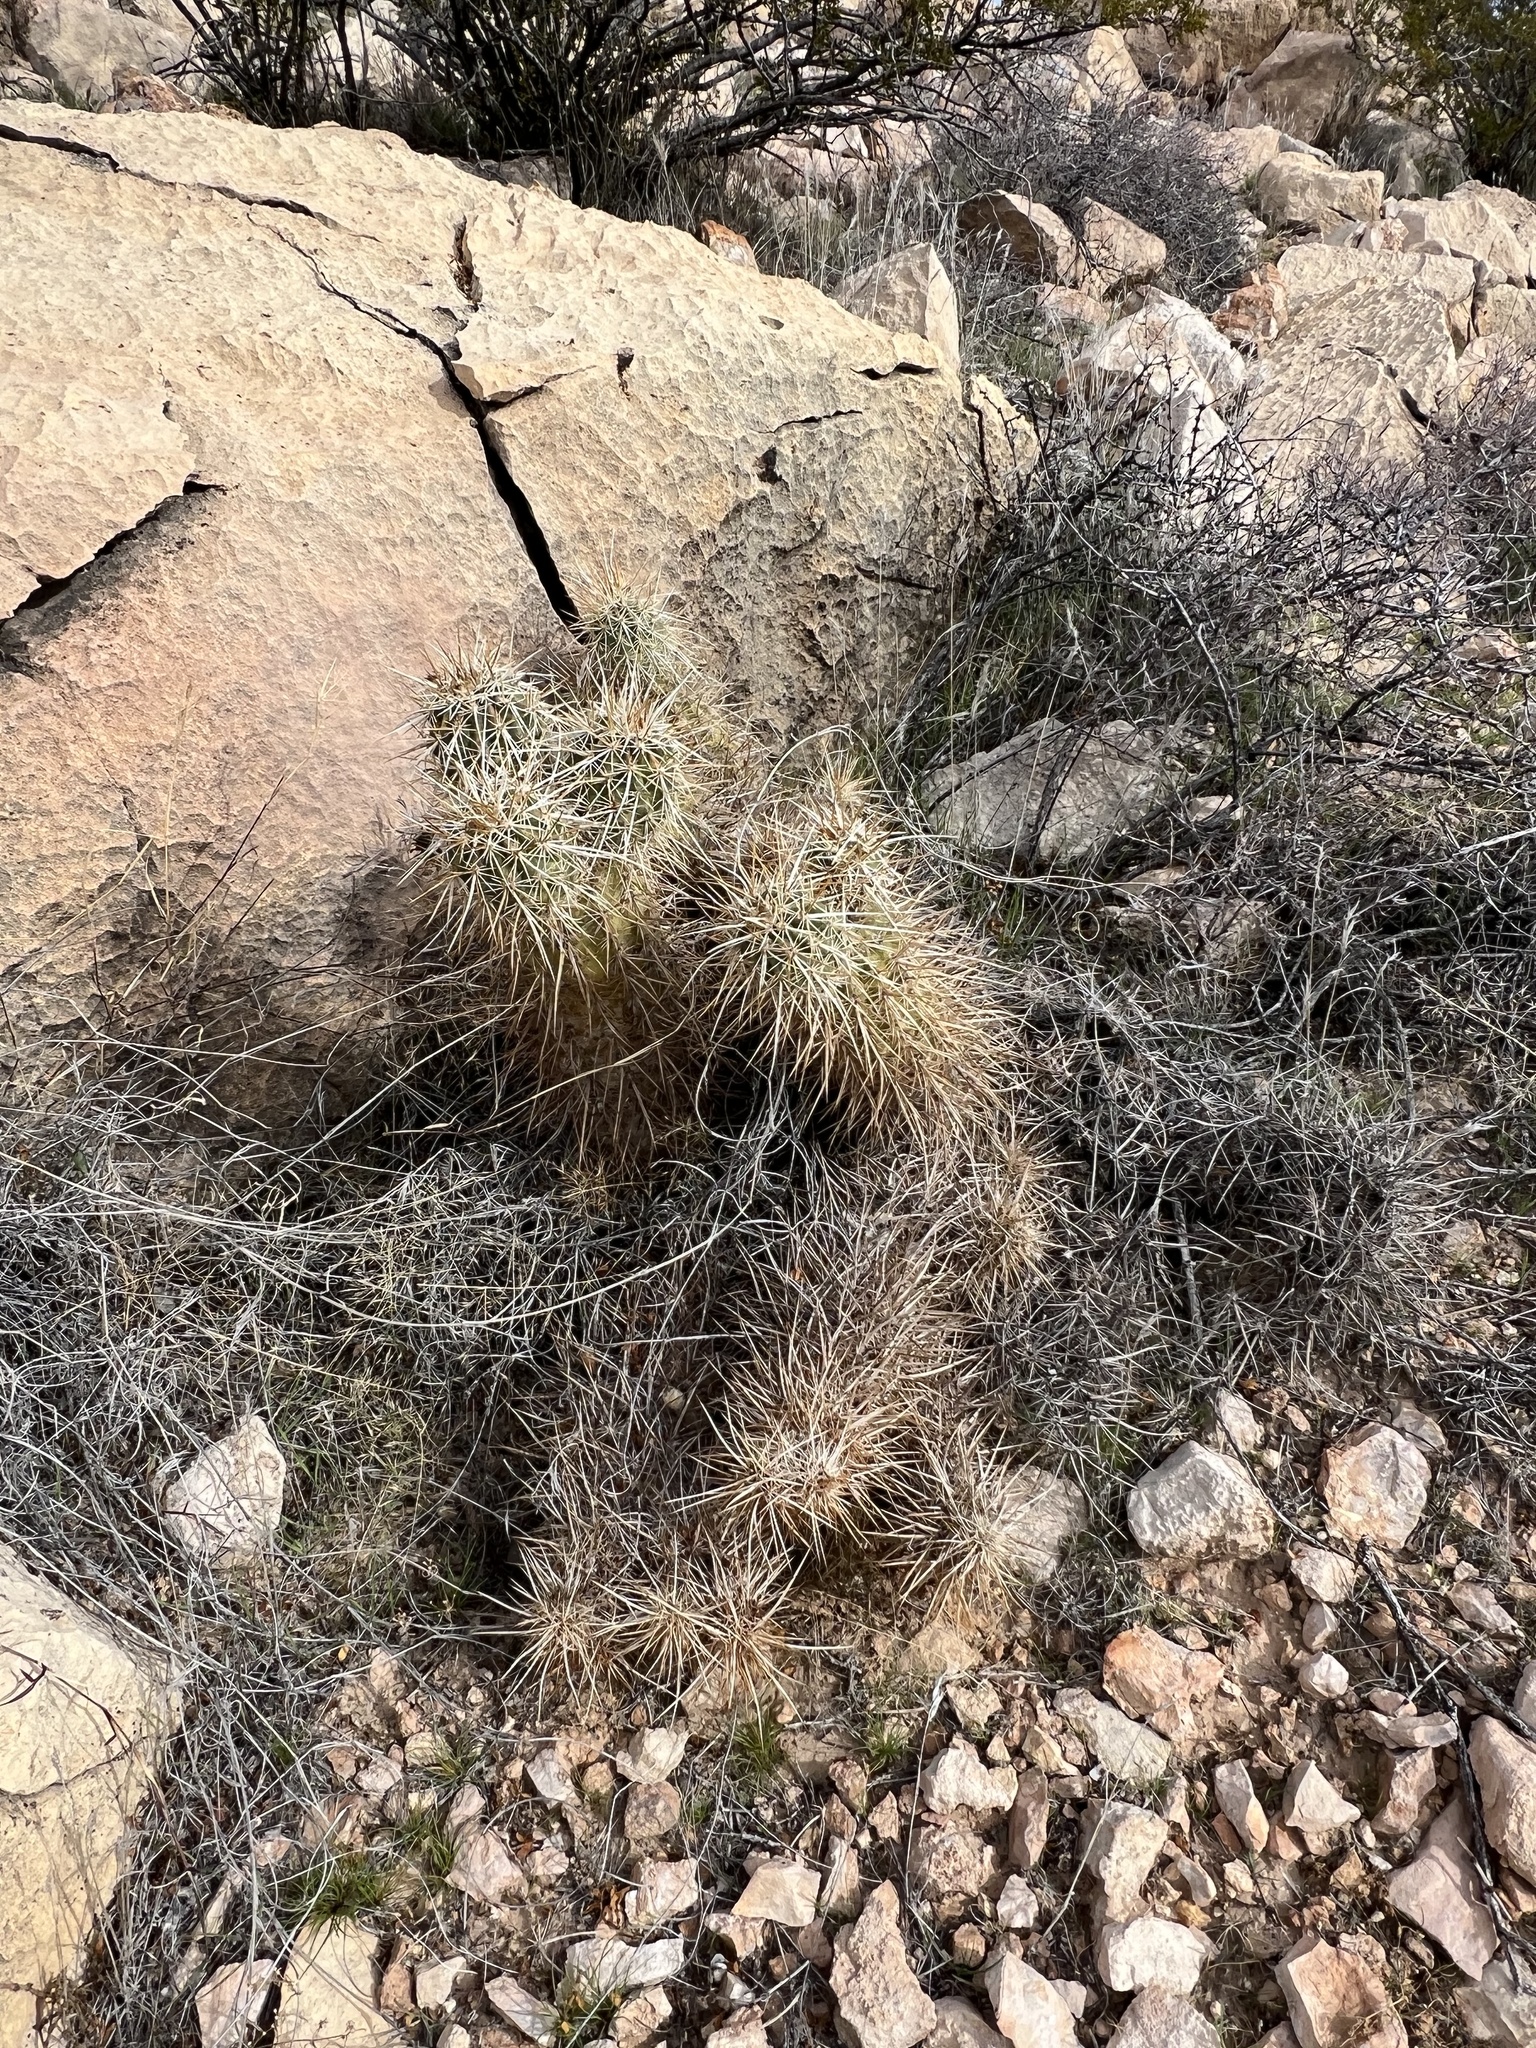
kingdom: Plantae
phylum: Tracheophyta
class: Magnoliopsida
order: Caryophyllales
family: Cactaceae
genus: Echinocereus
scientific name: Echinocereus engelmannii
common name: Engelmann's hedgehog cactus
